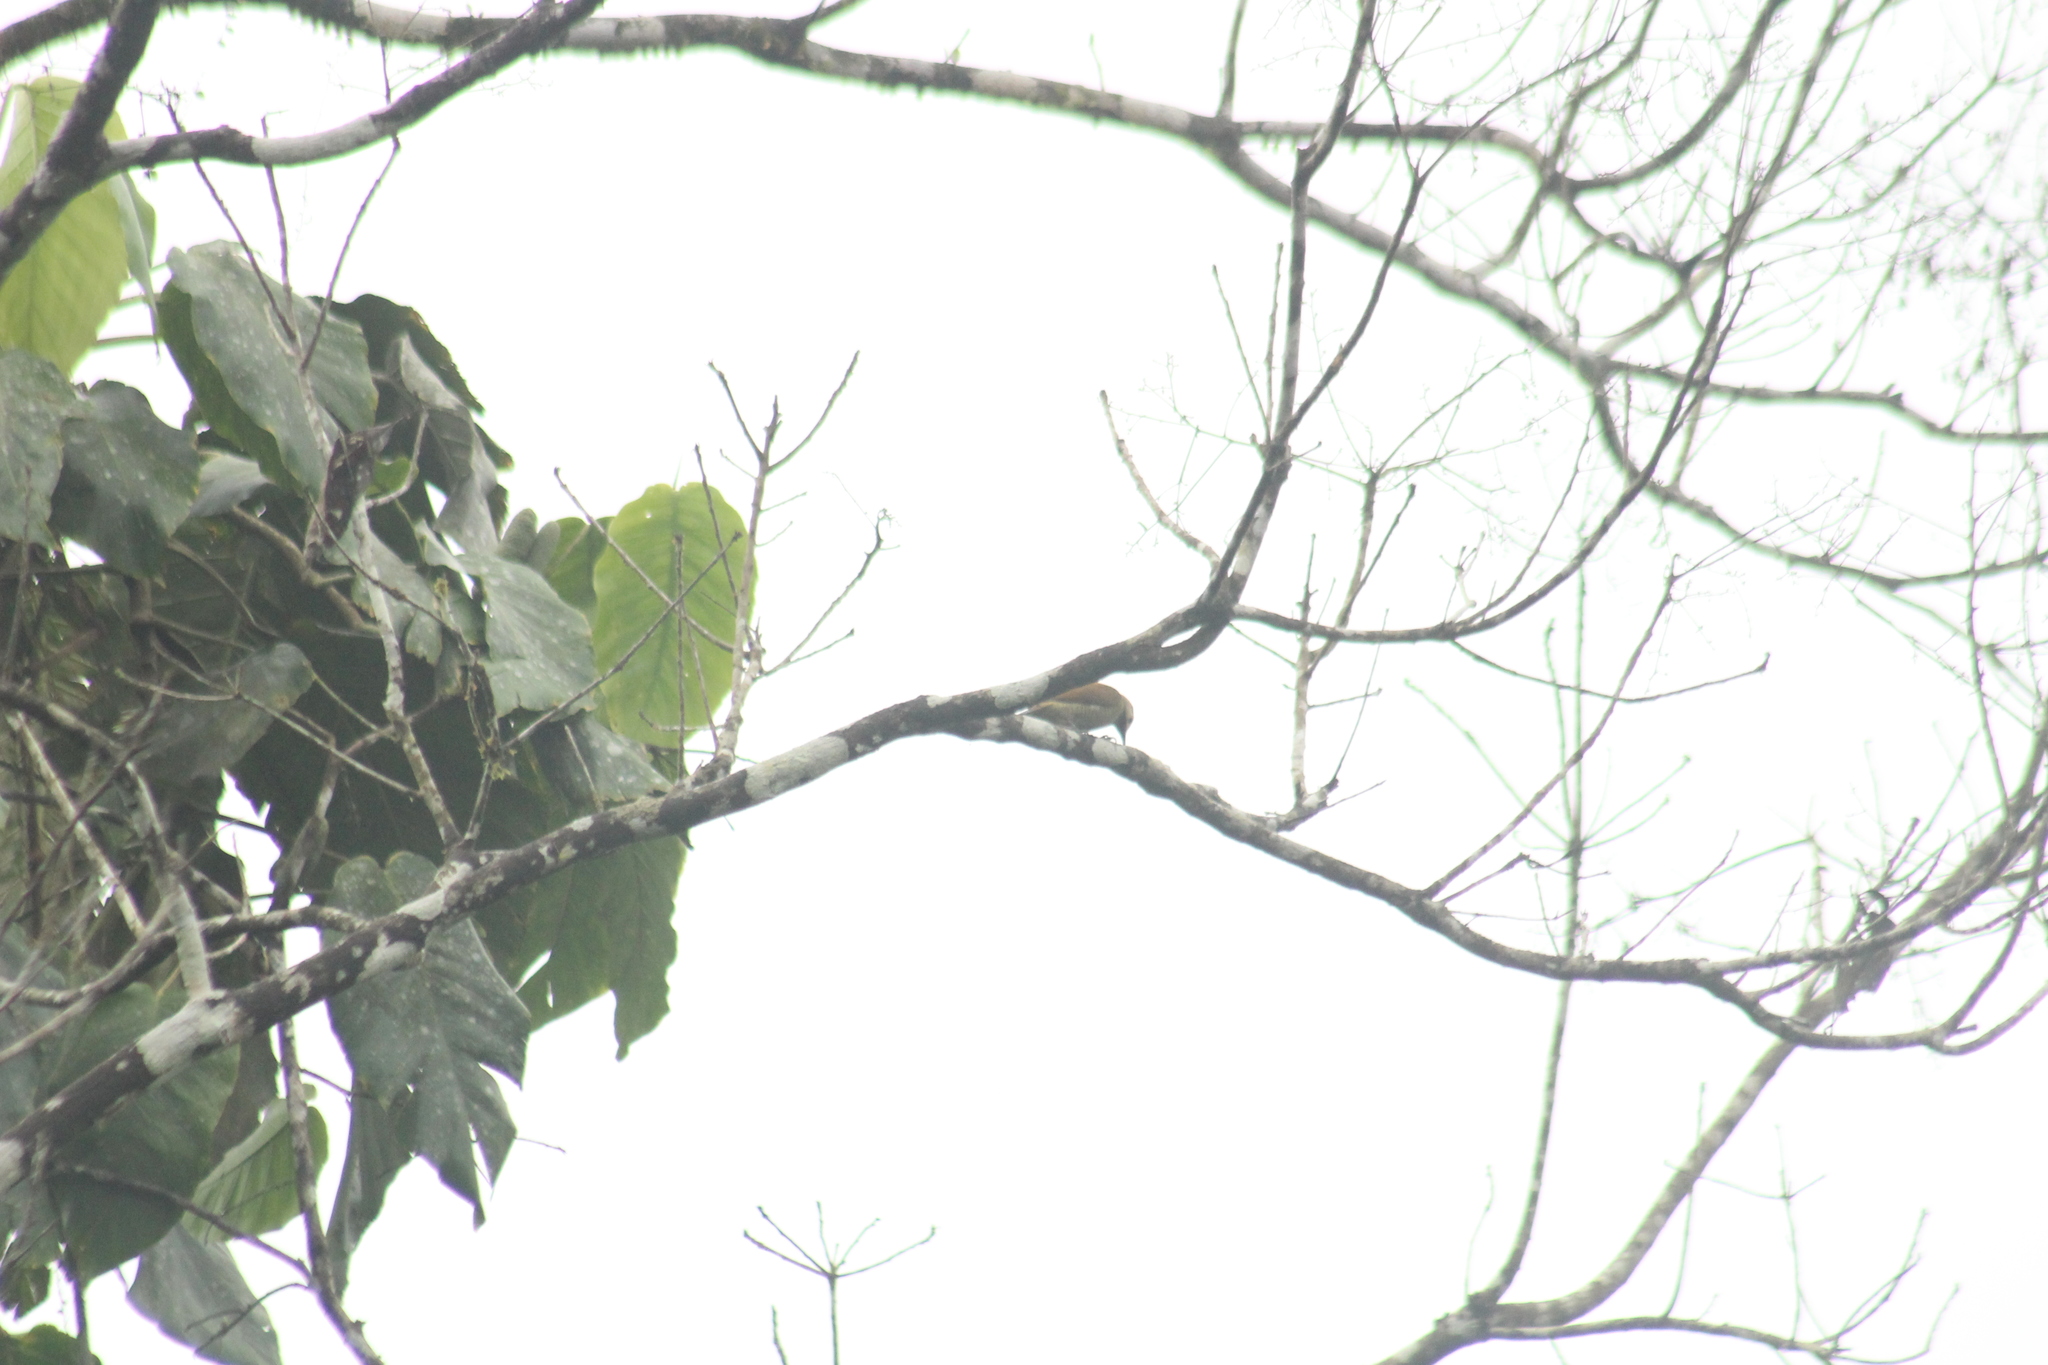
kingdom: Animalia
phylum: Chordata
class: Aves
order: Piciformes
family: Picidae
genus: Colaptes
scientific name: Colaptes rubiginosus
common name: Golden-olive woodpecker
